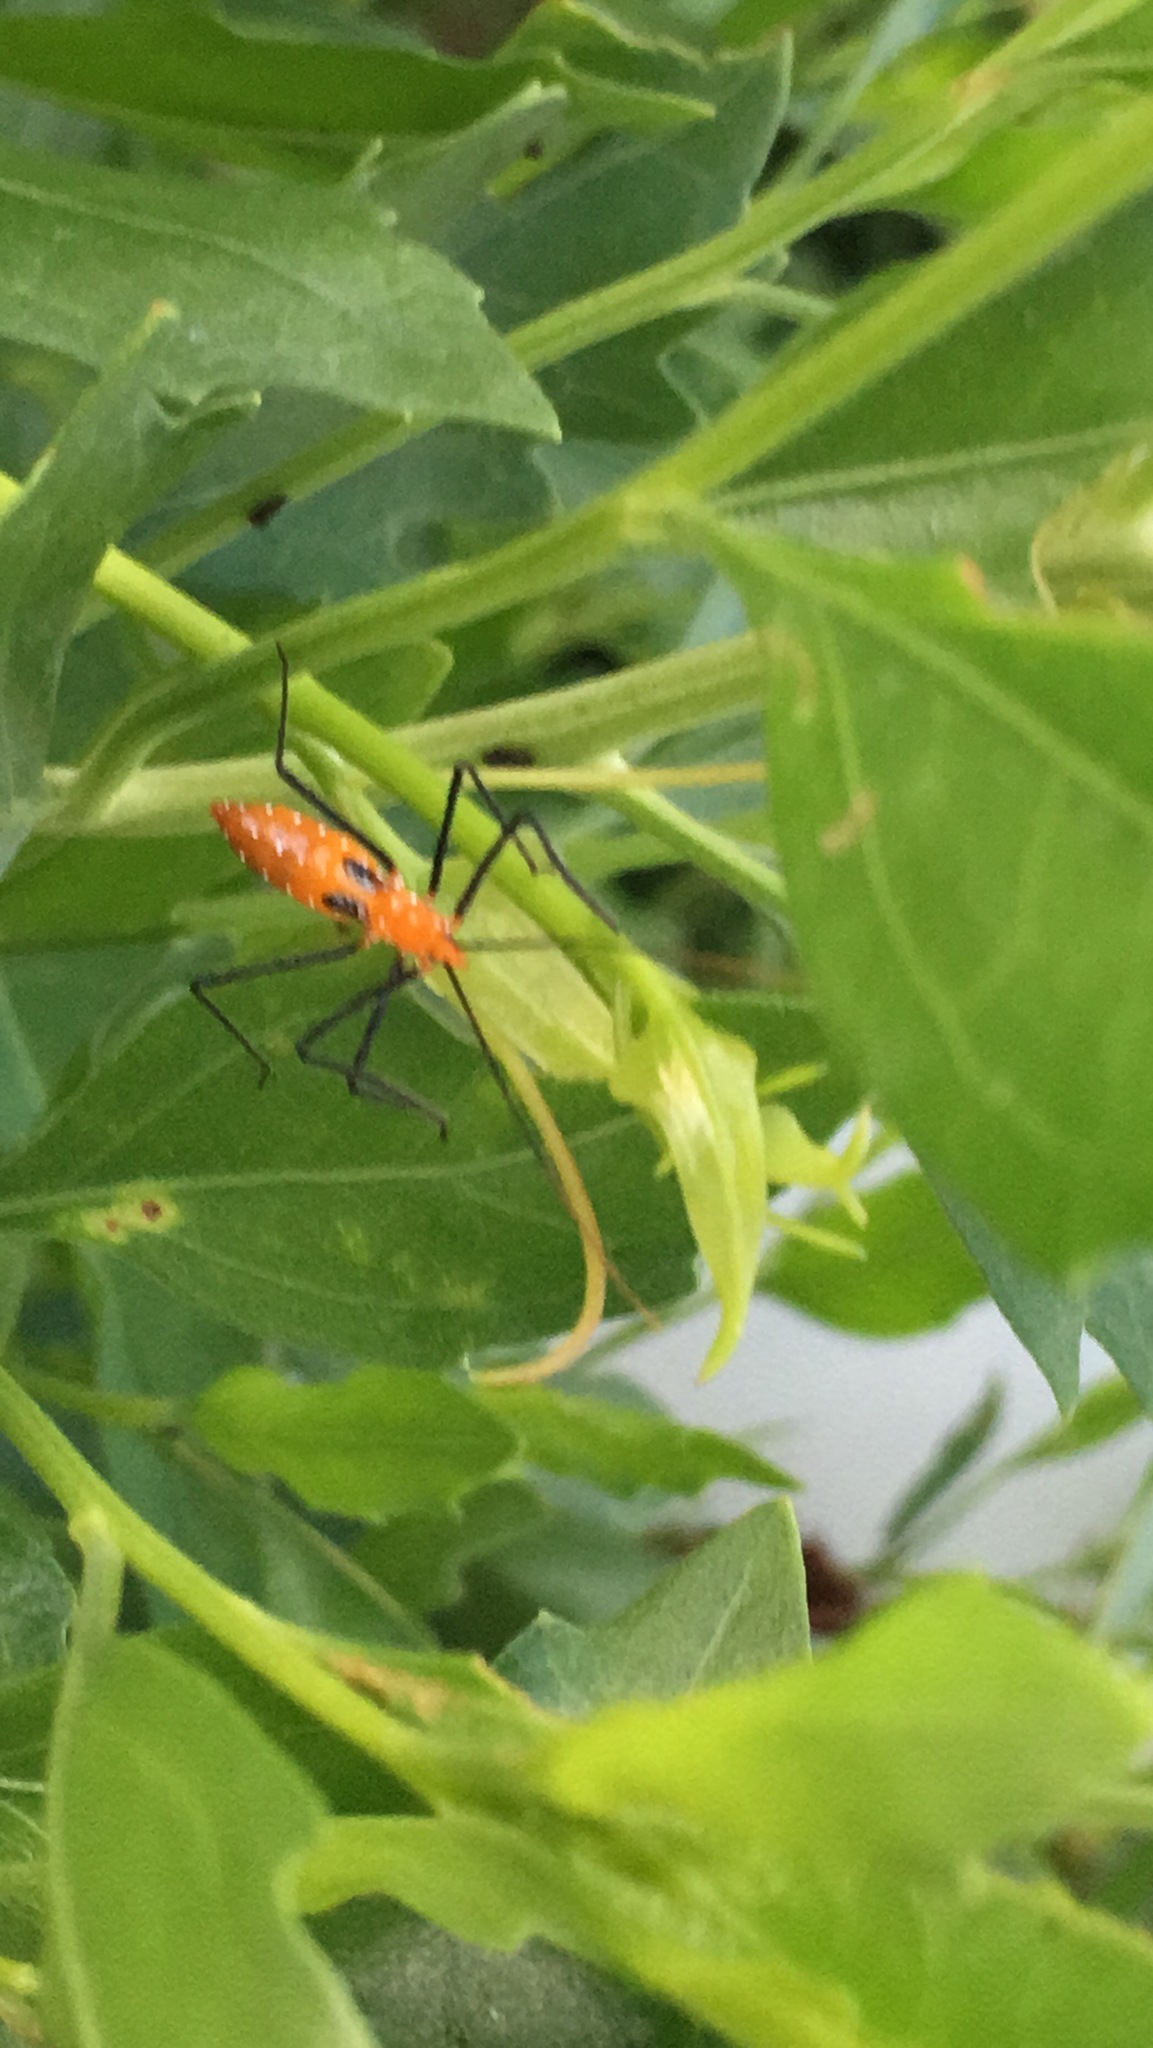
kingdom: Animalia
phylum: Arthropoda
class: Insecta
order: Hemiptera
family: Reduviidae
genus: Zelus
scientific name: Zelus longipes
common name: Milkweed assassin bug
